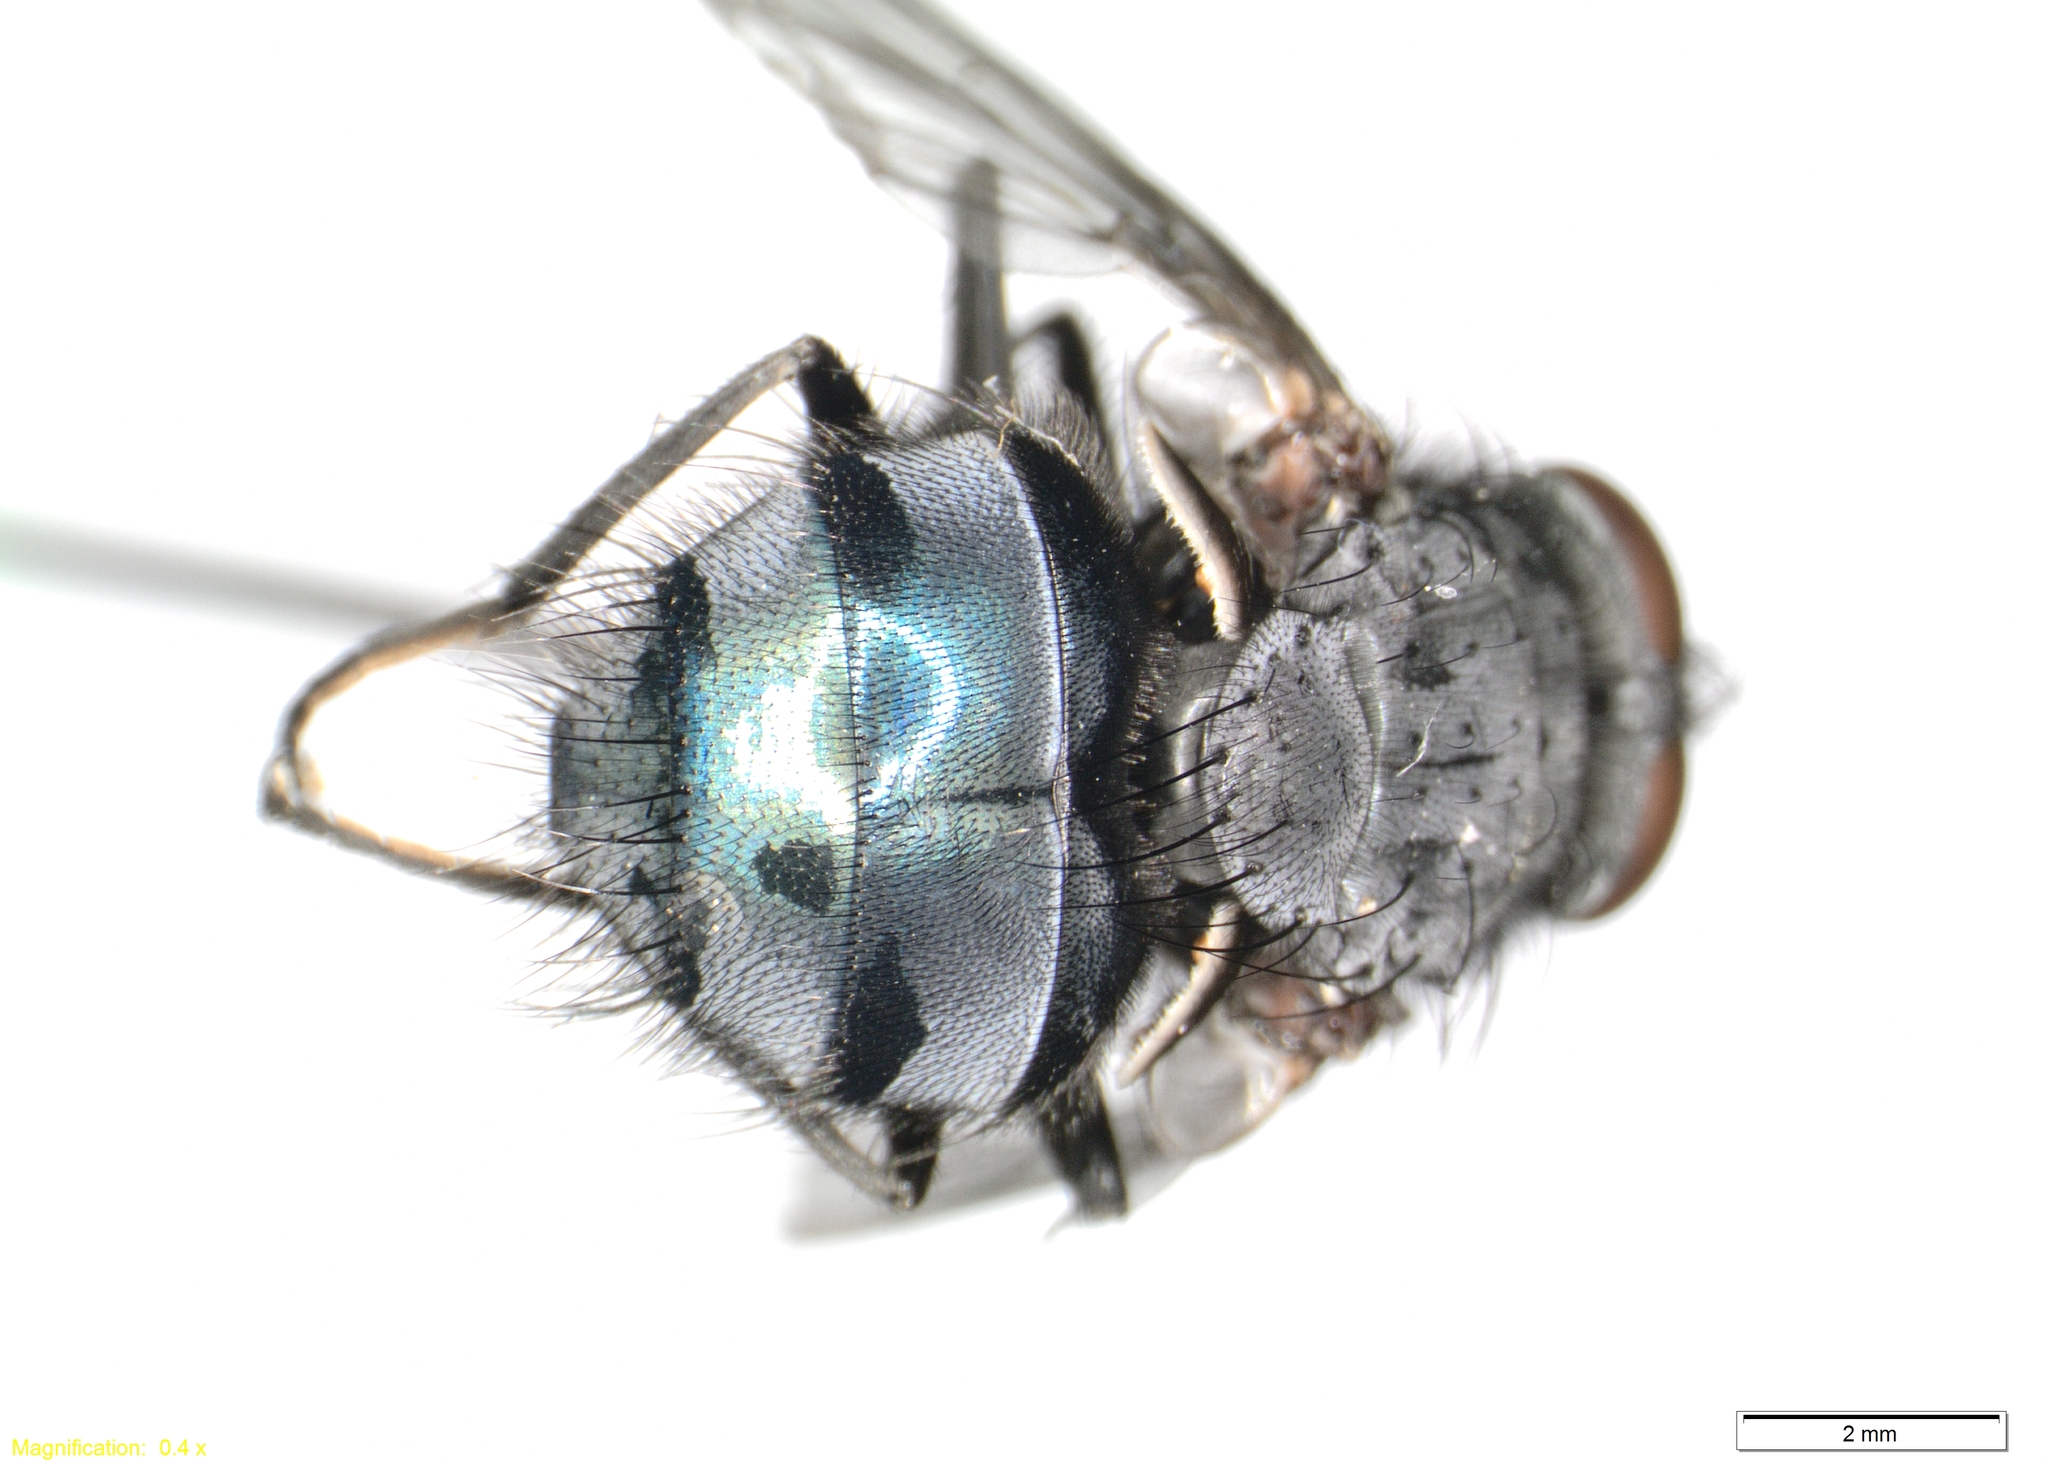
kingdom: Animalia
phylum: Arthropoda
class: Insecta
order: Diptera
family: Calliphoridae
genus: Calliphora
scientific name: Calliphora vicina
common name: Common blow flie
